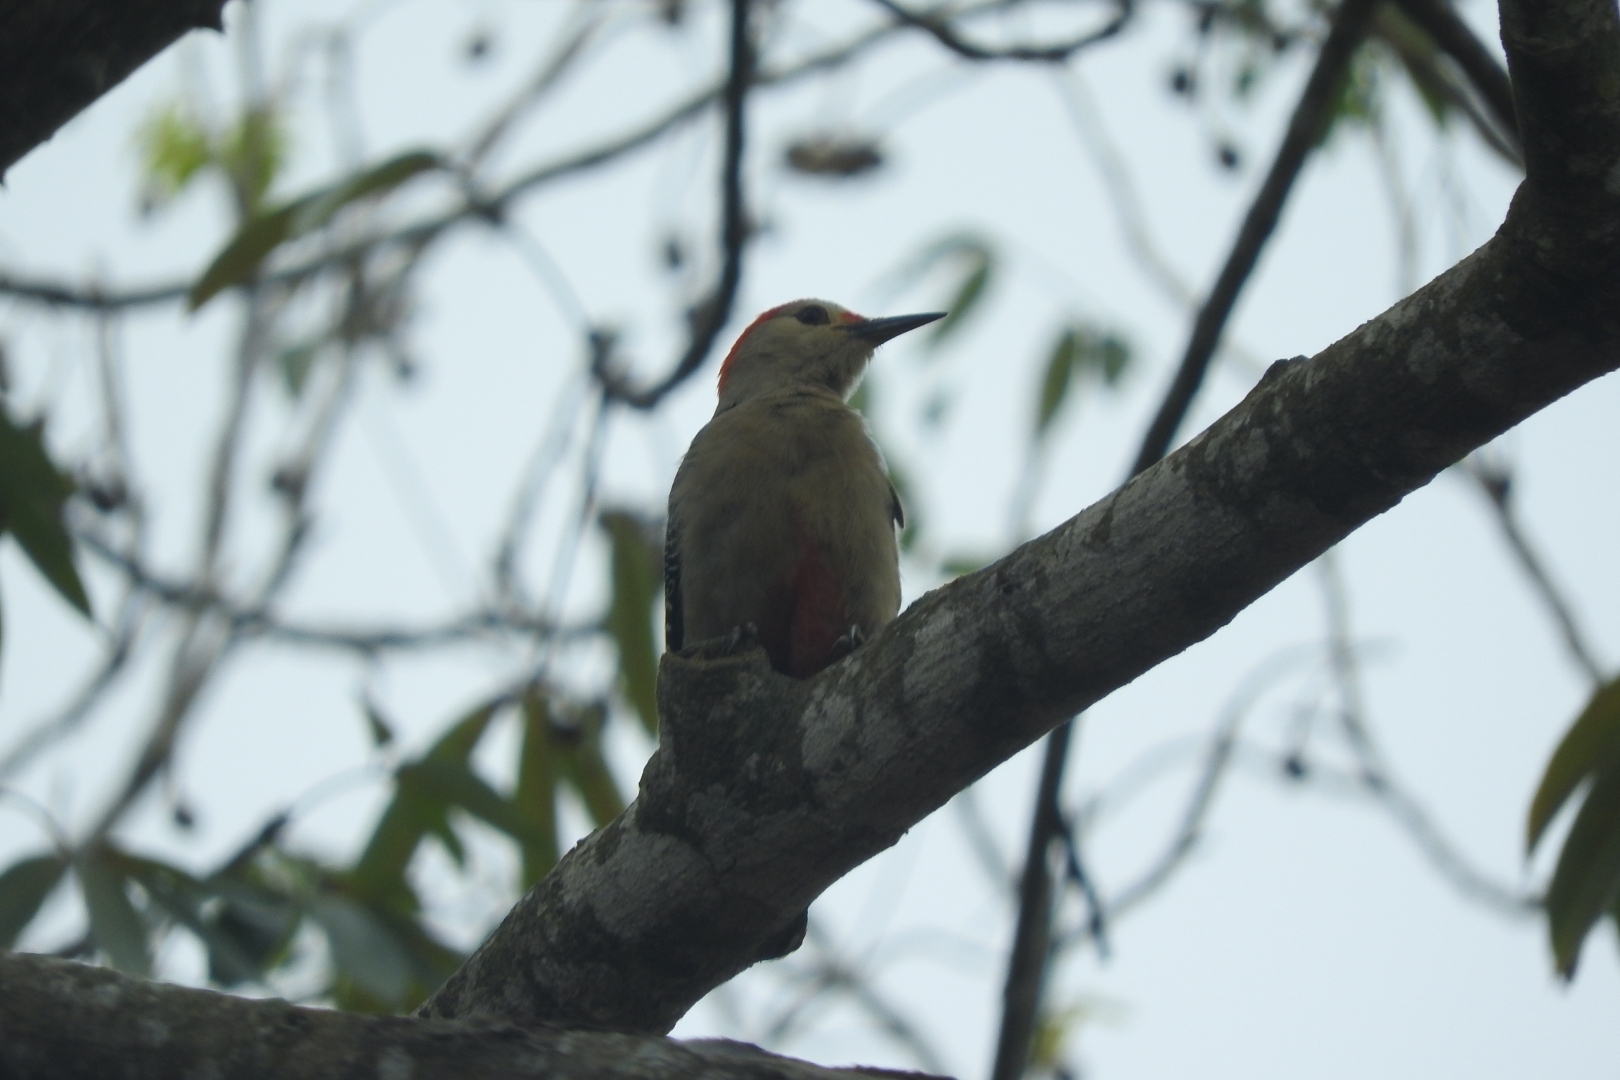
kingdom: Animalia
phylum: Chordata
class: Aves
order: Piciformes
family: Picidae
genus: Melanerpes
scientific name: Melanerpes aurifrons
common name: Golden-fronted woodpecker
